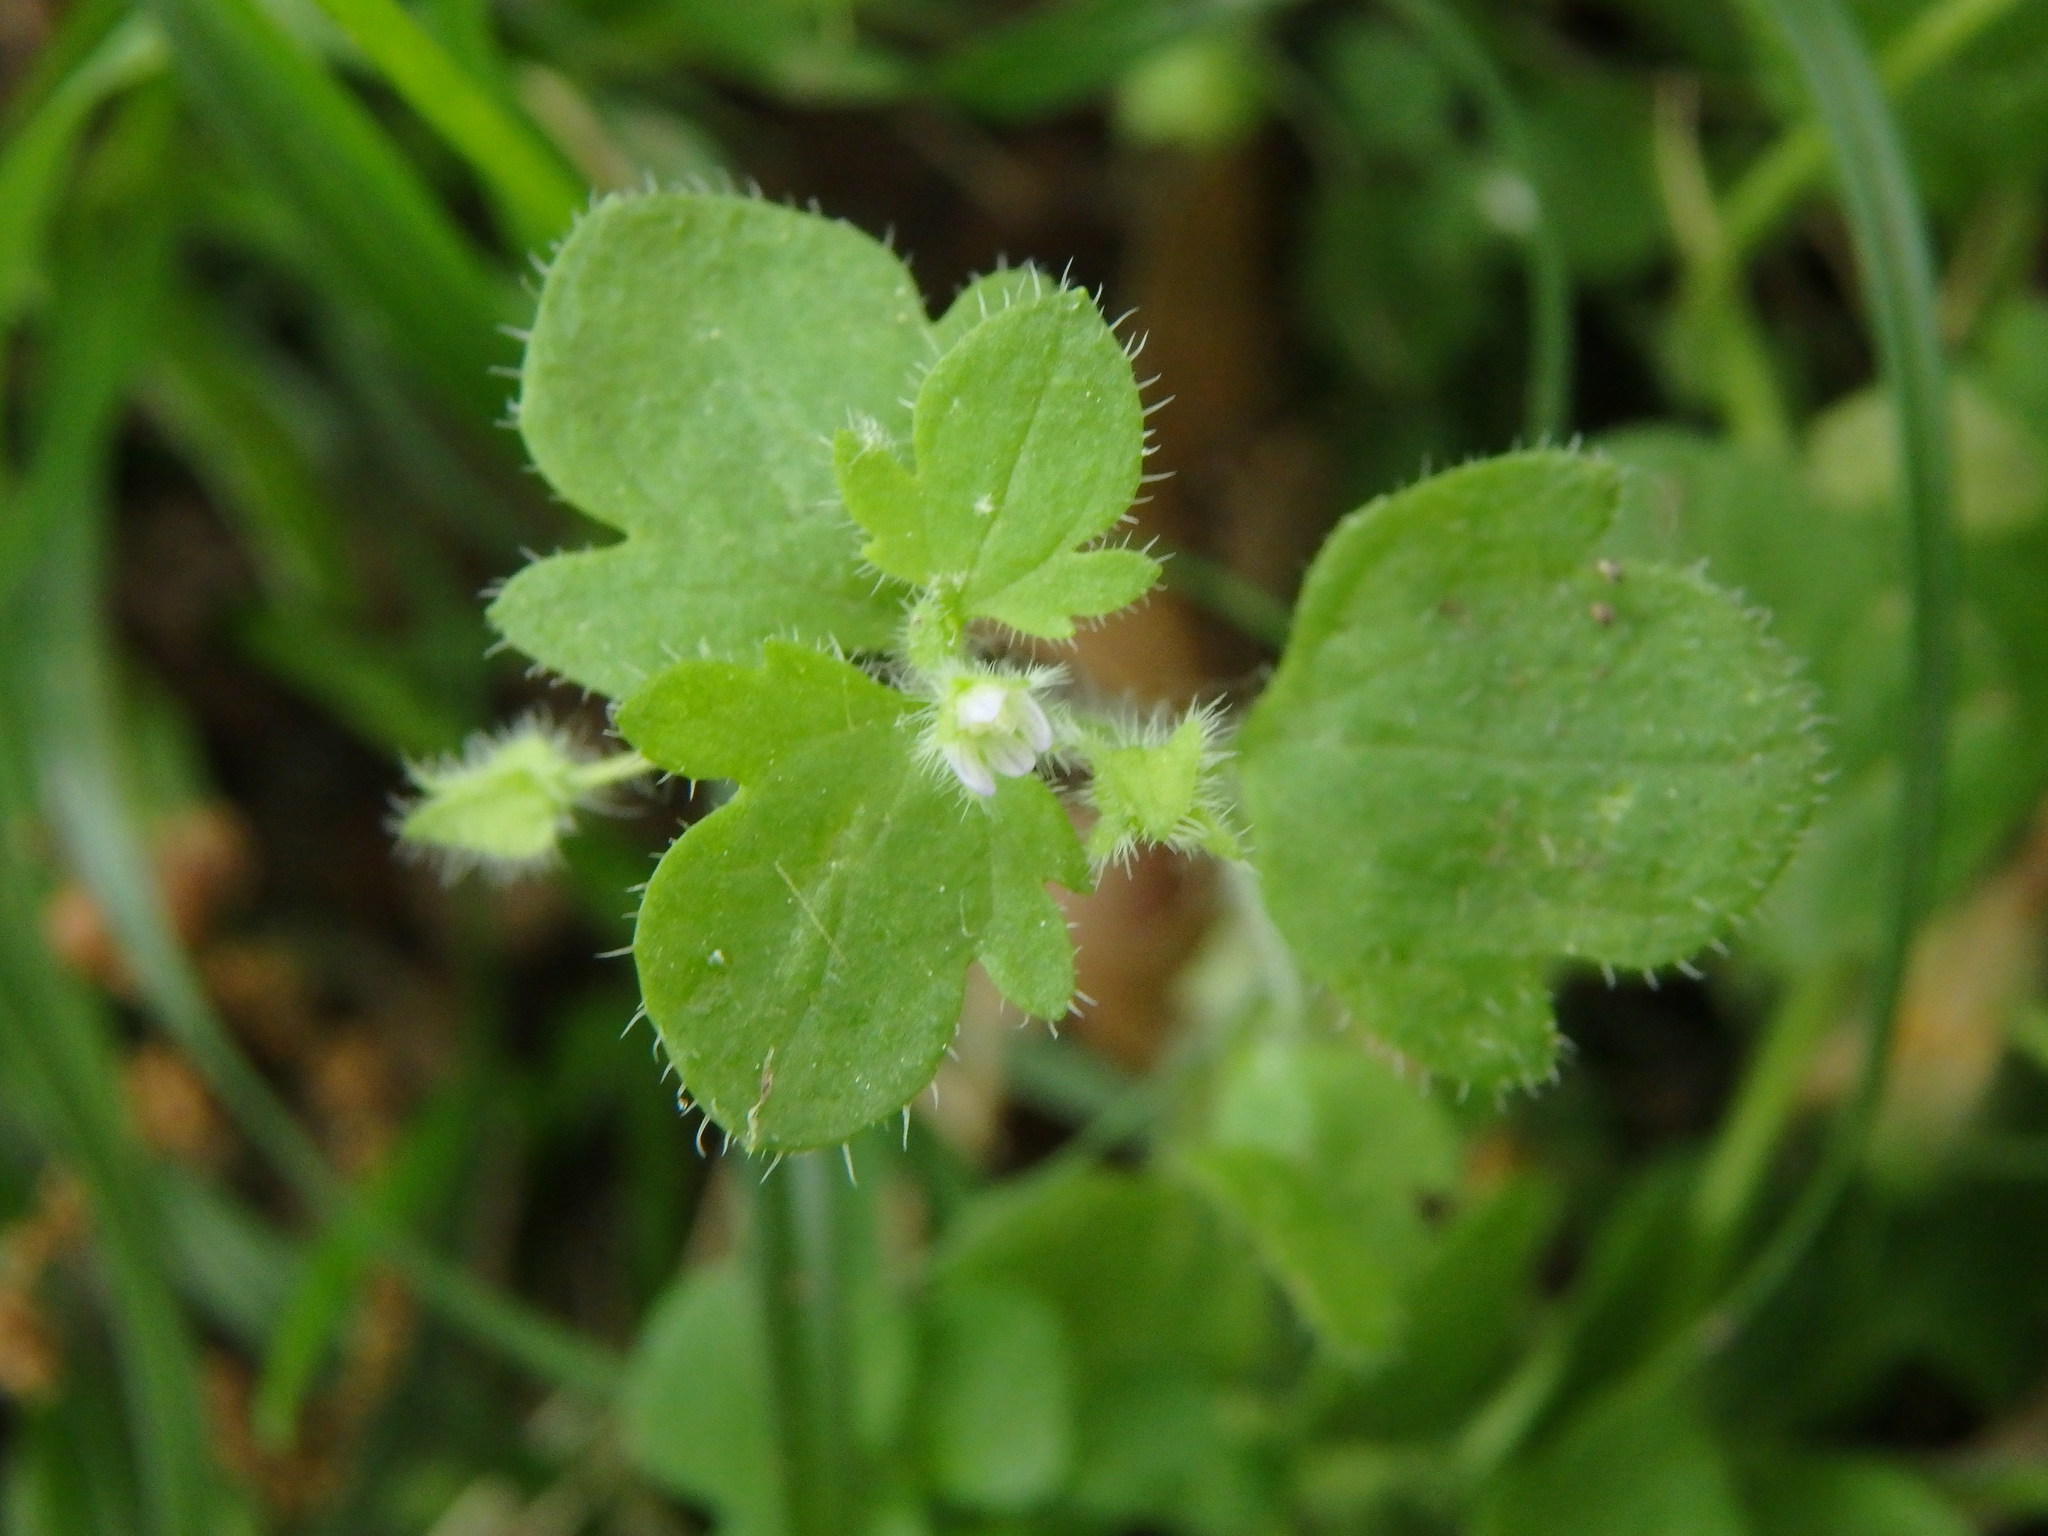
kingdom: Plantae
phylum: Tracheophyta
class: Magnoliopsida
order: Lamiales
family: Plantaginaceae
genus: Veronica
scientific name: Veronica hederifolia
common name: Ivy-leaved speedwell
